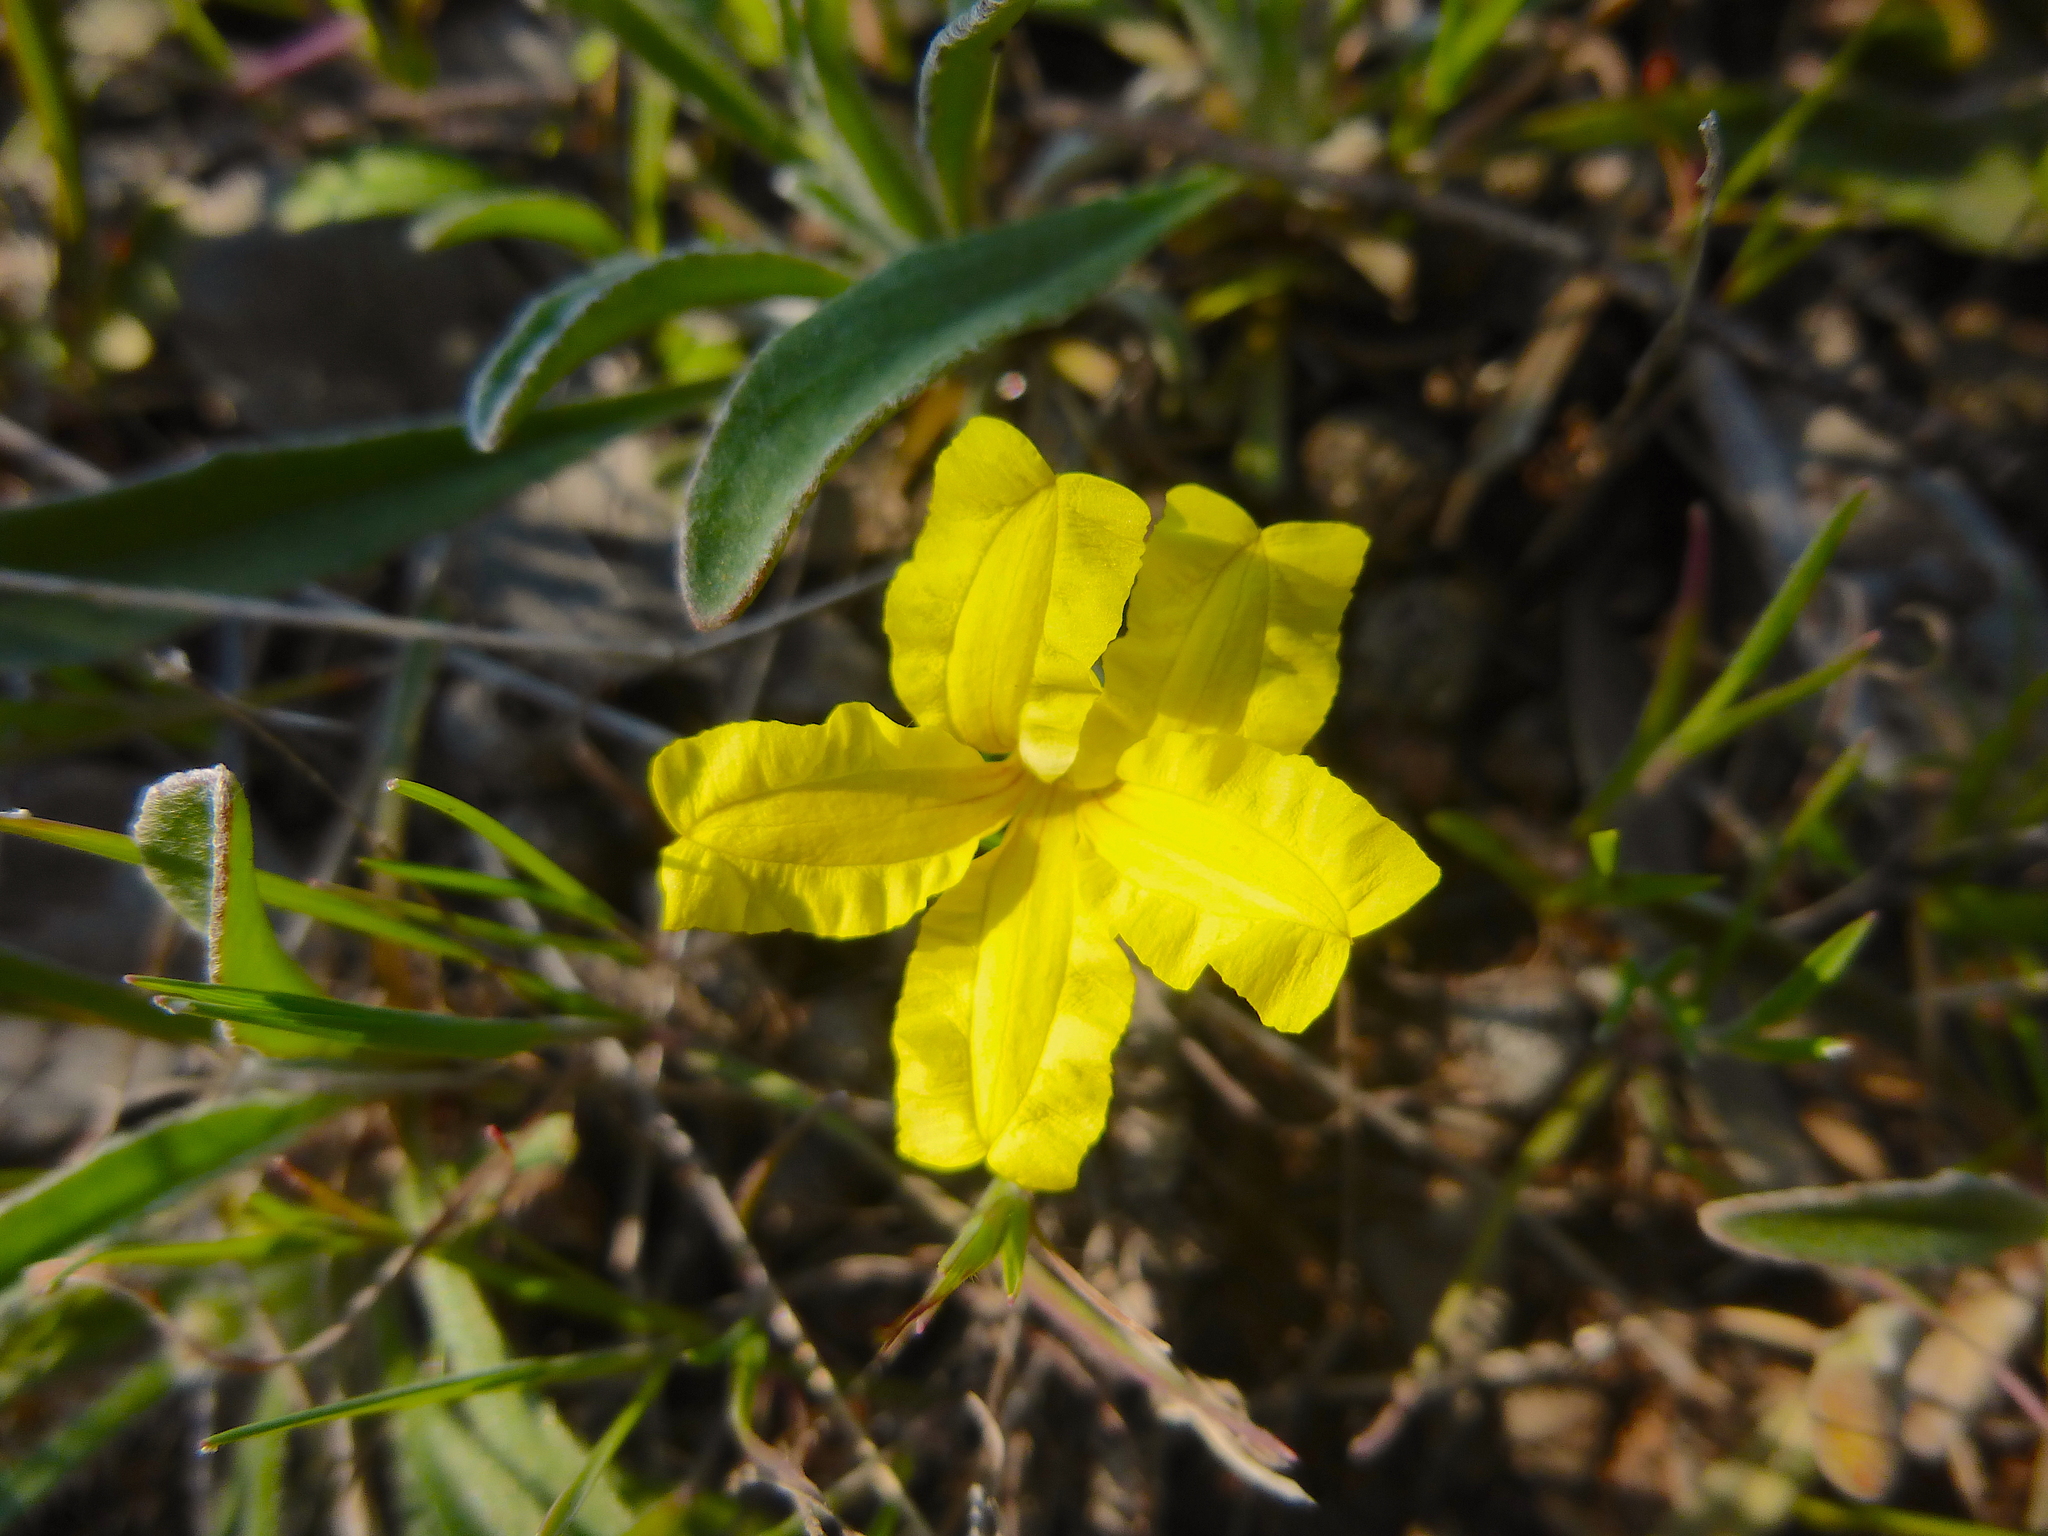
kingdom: Plantae
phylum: Tracheophyta
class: Magnoliopsida
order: Asterales
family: Goodeniaceae
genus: Goodenia
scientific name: Goodenia willisiana
